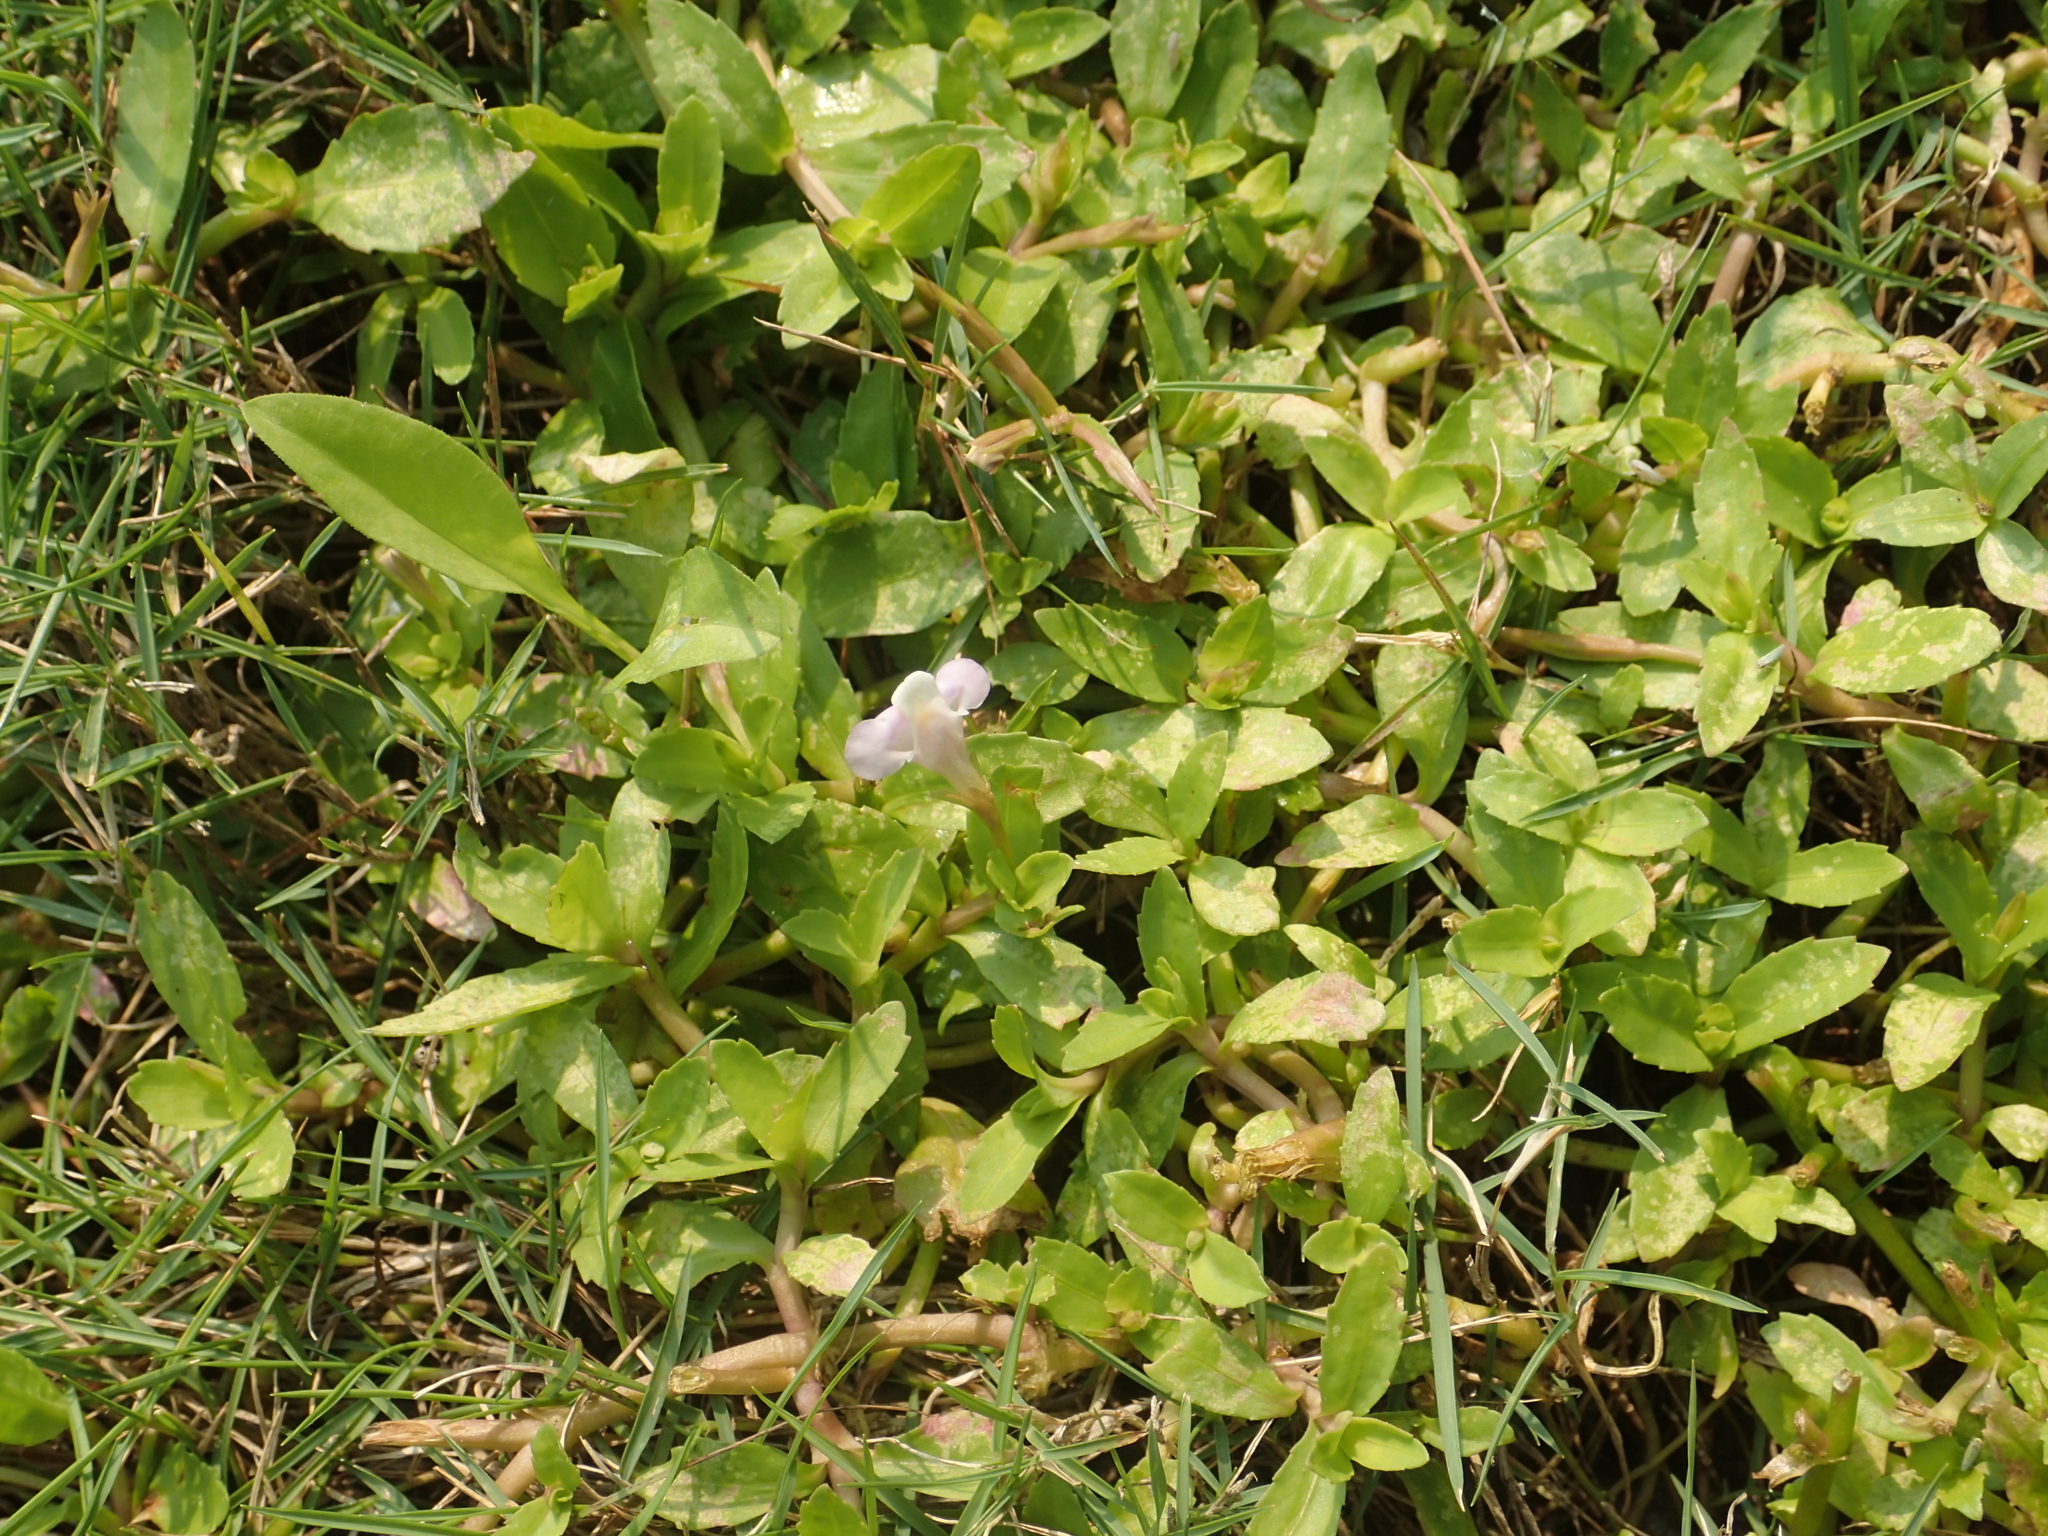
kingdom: Plantae
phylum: Tracheophyta
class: Magnoliopsida
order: Lamiales
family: Linderniaceae
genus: Bonnaya
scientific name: Bonnaya antipoda
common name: Sparrow false pimpernel
